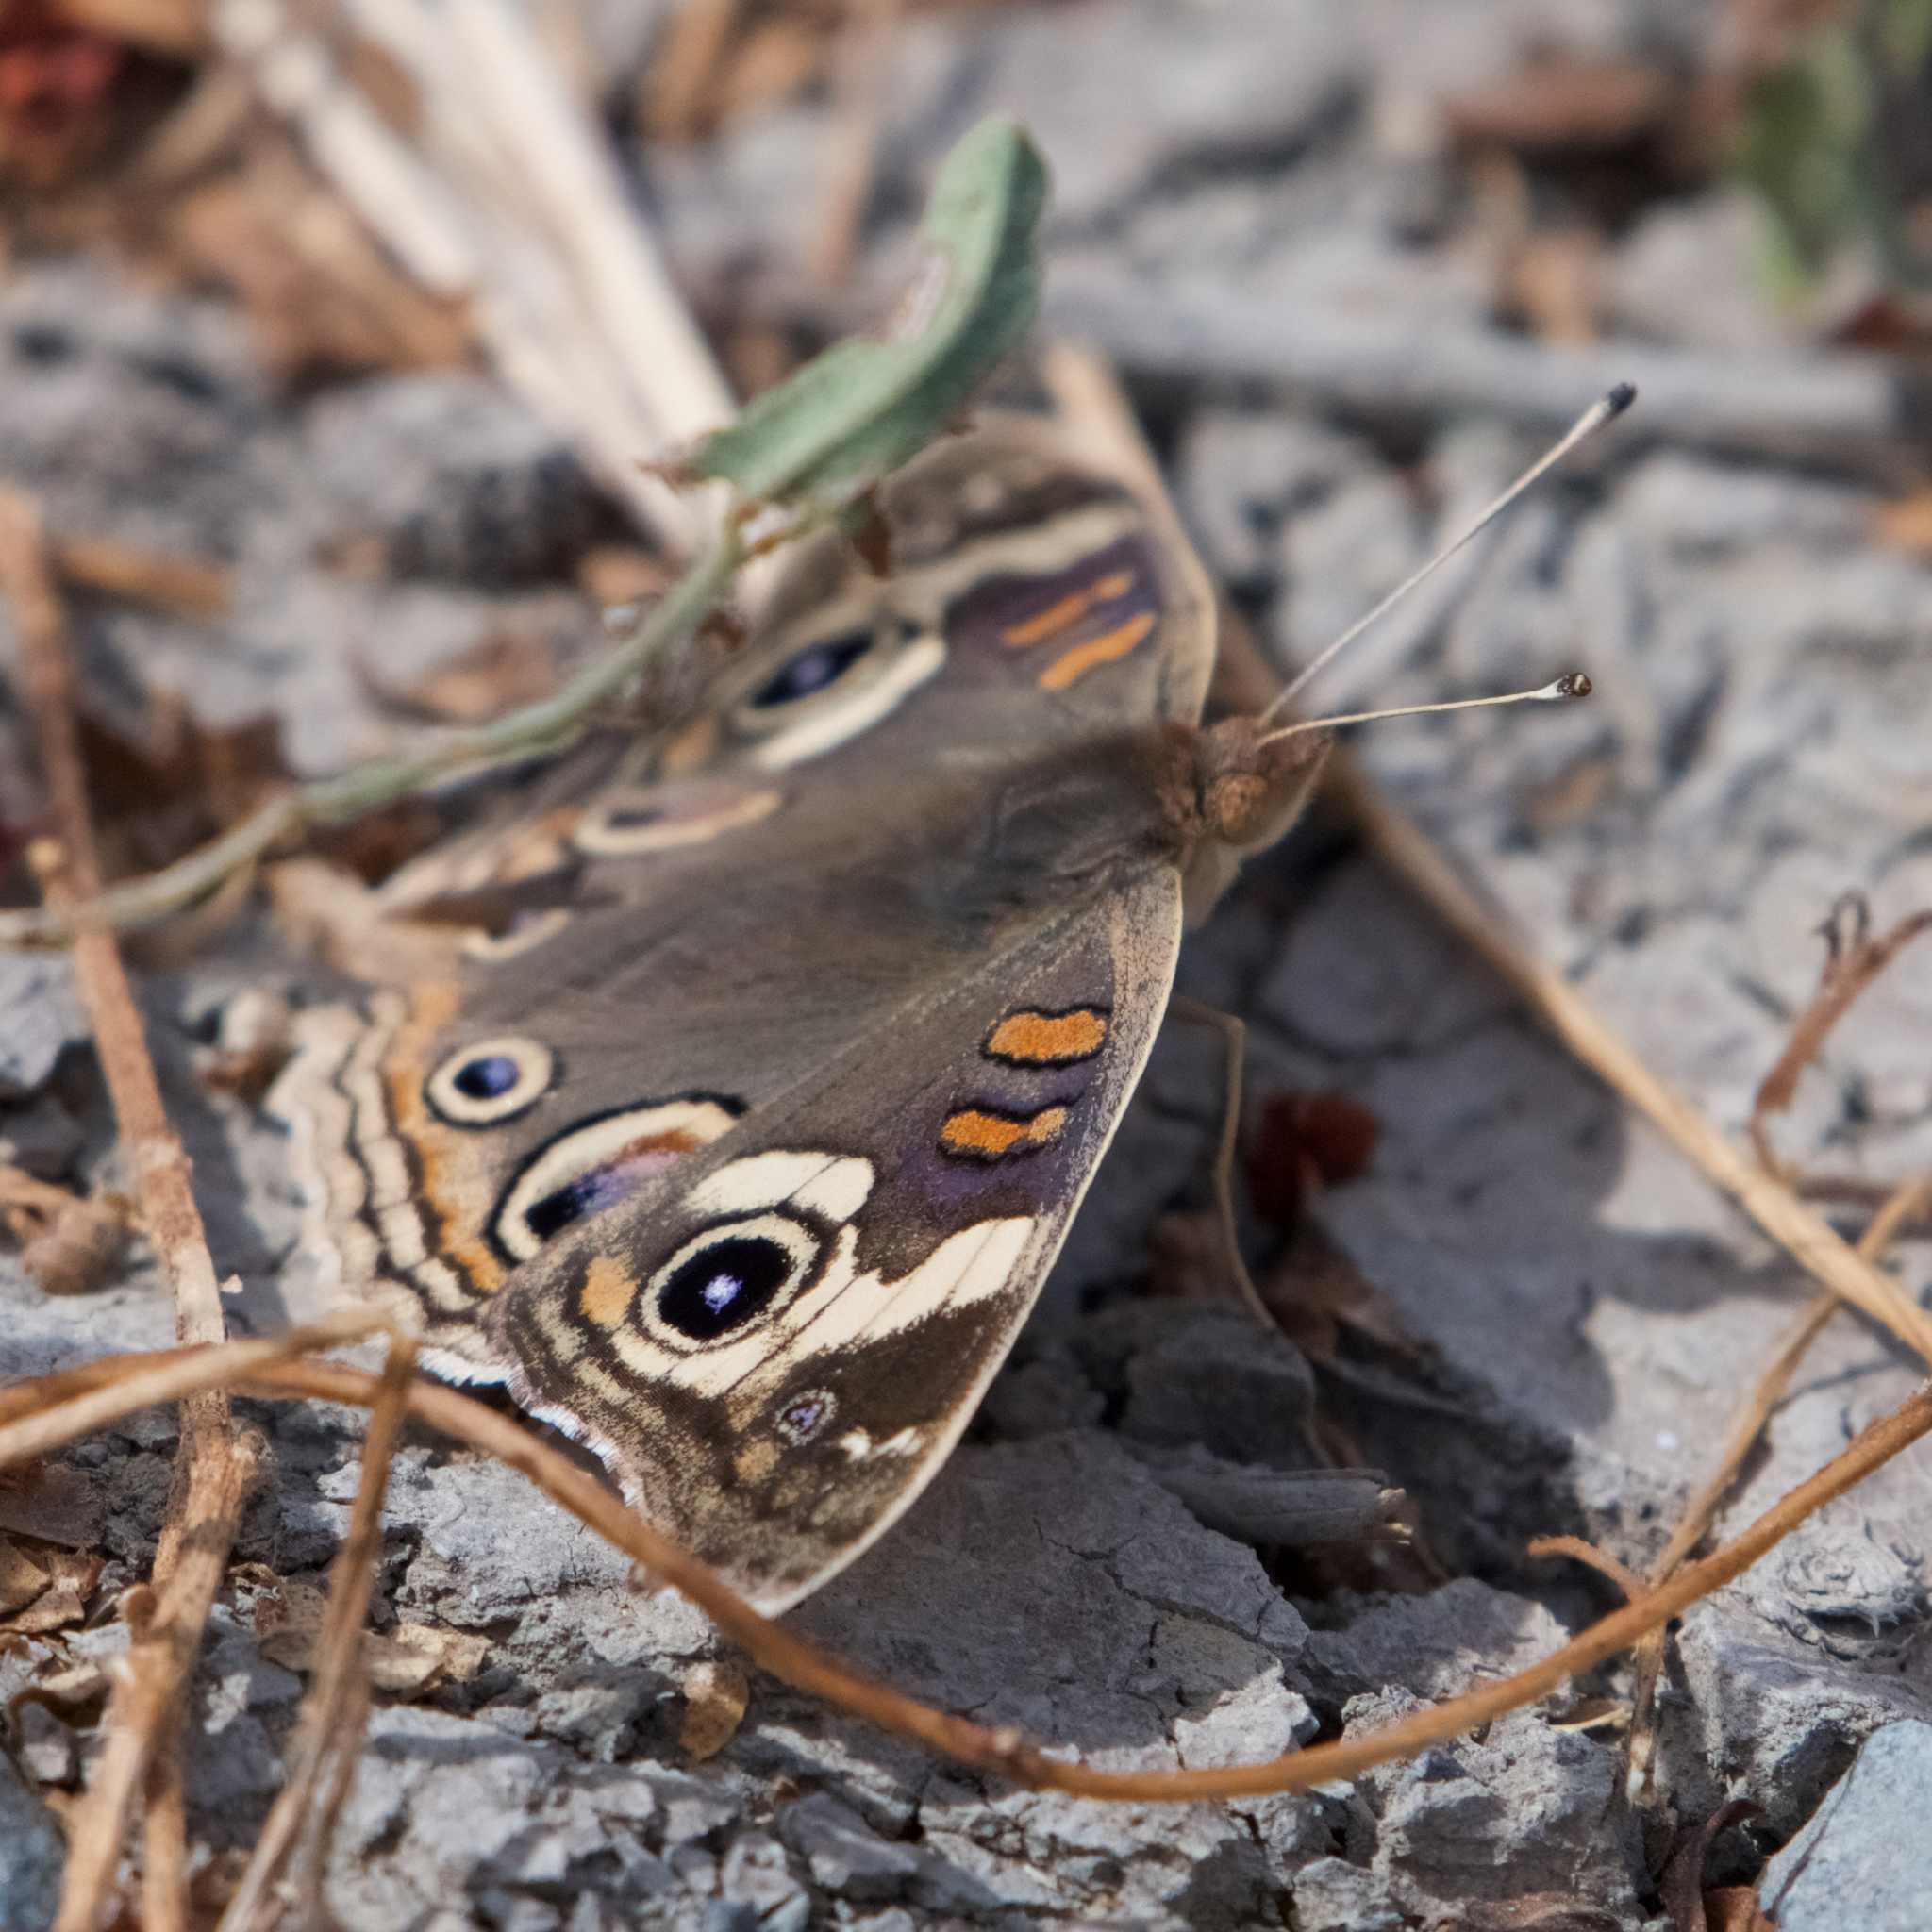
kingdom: Animalia
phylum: Arthropoda
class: Insecta
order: Lepidoptera
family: Nymphalidae
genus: Junonia
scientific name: Junonia grisea
